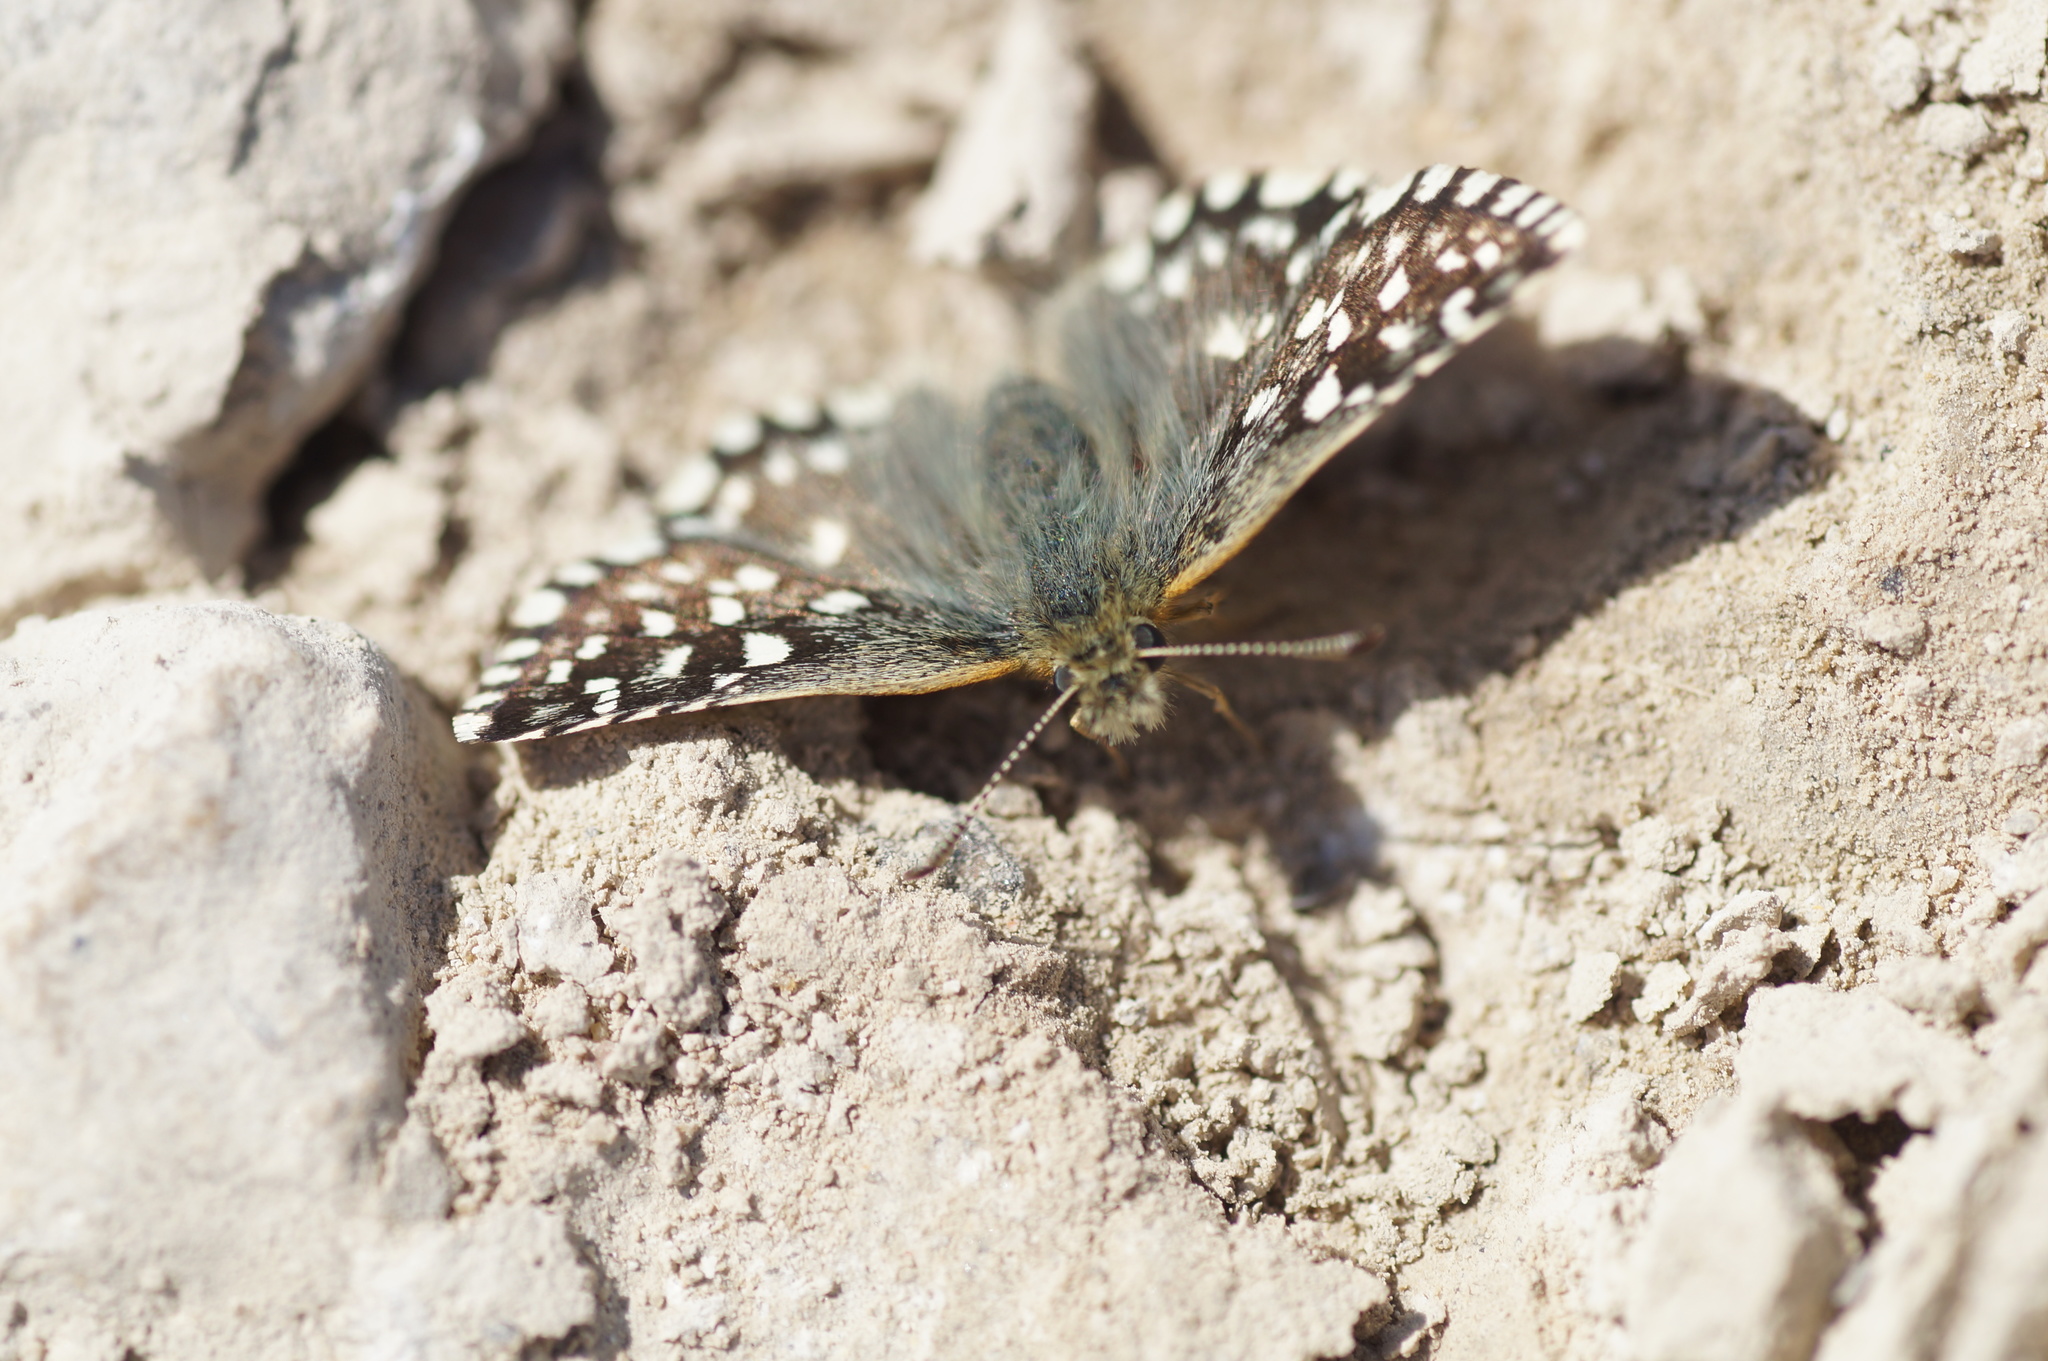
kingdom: Animalia
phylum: Arthropoda
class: Insecta
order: Lepidoptera
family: Hesperiidae
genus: Pyrgus
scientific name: Pyrgus malvae
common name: Grizzled skipper
